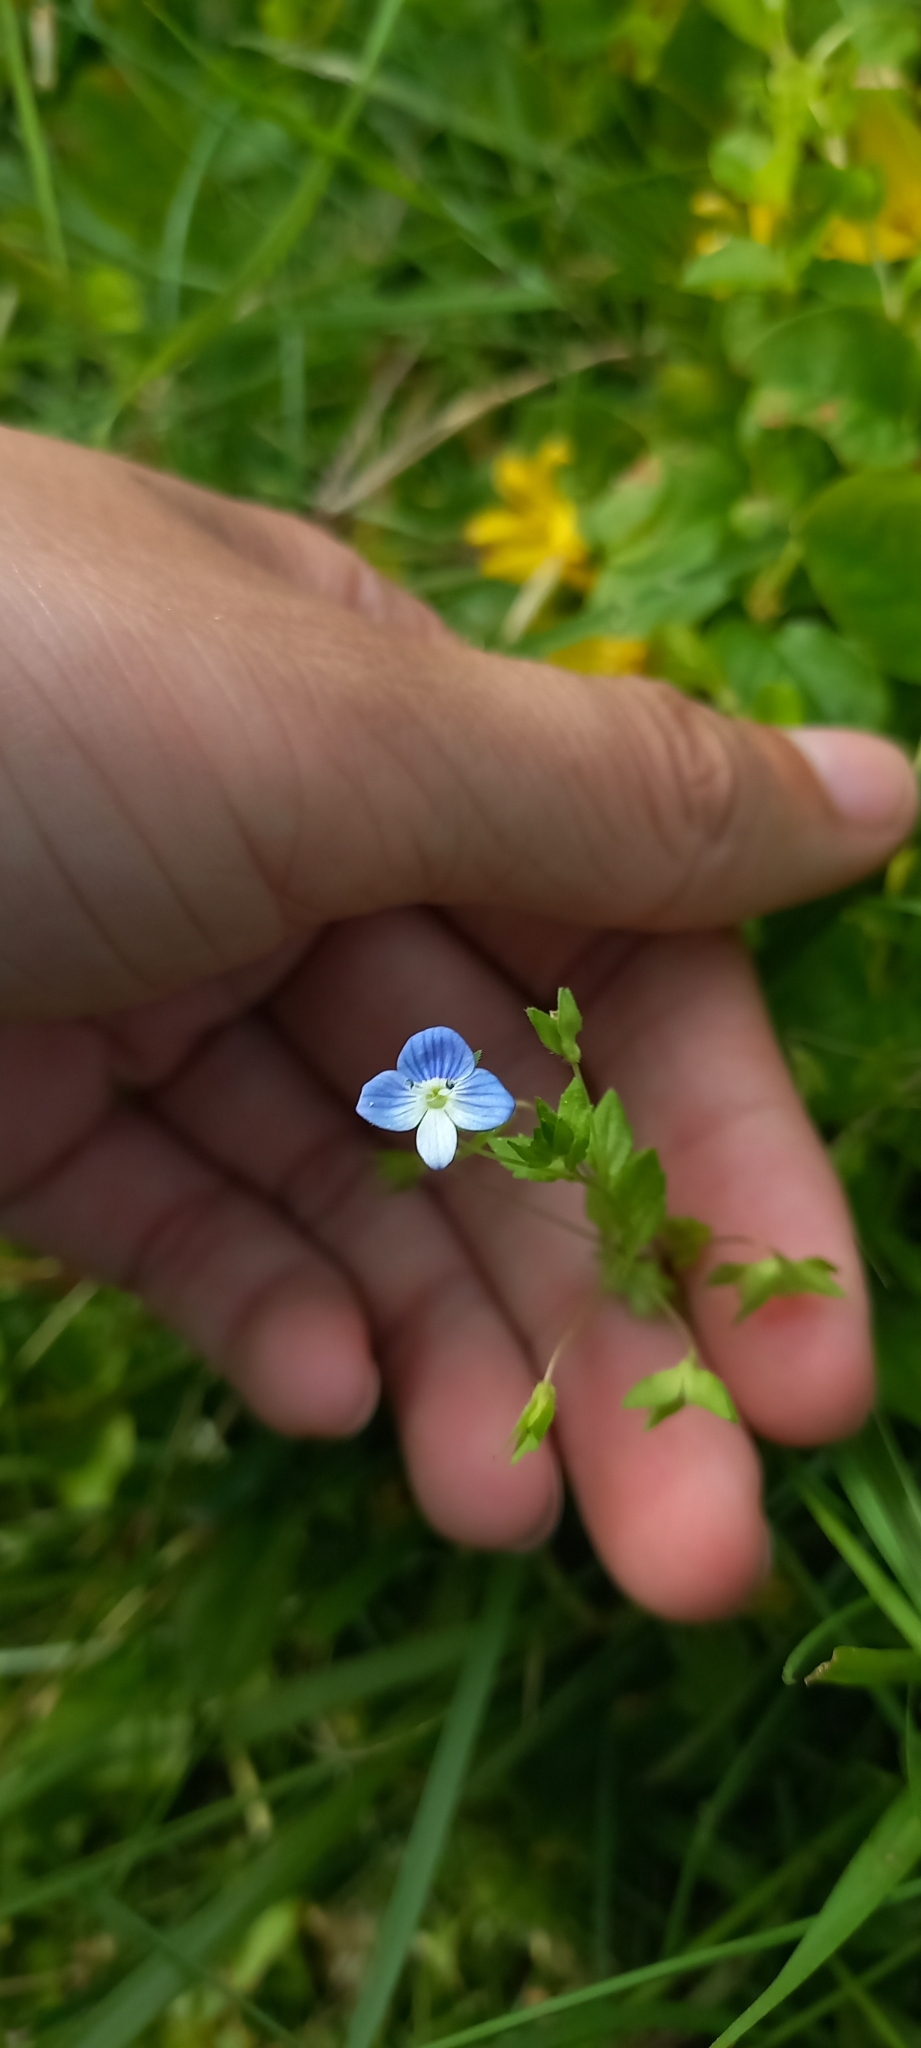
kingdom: Plantae
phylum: Tracheophyta
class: Magnoliopsida
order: Lamiales
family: Plantaginaceae
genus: Veronica
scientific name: Veronica persica
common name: Common field-speedwell
